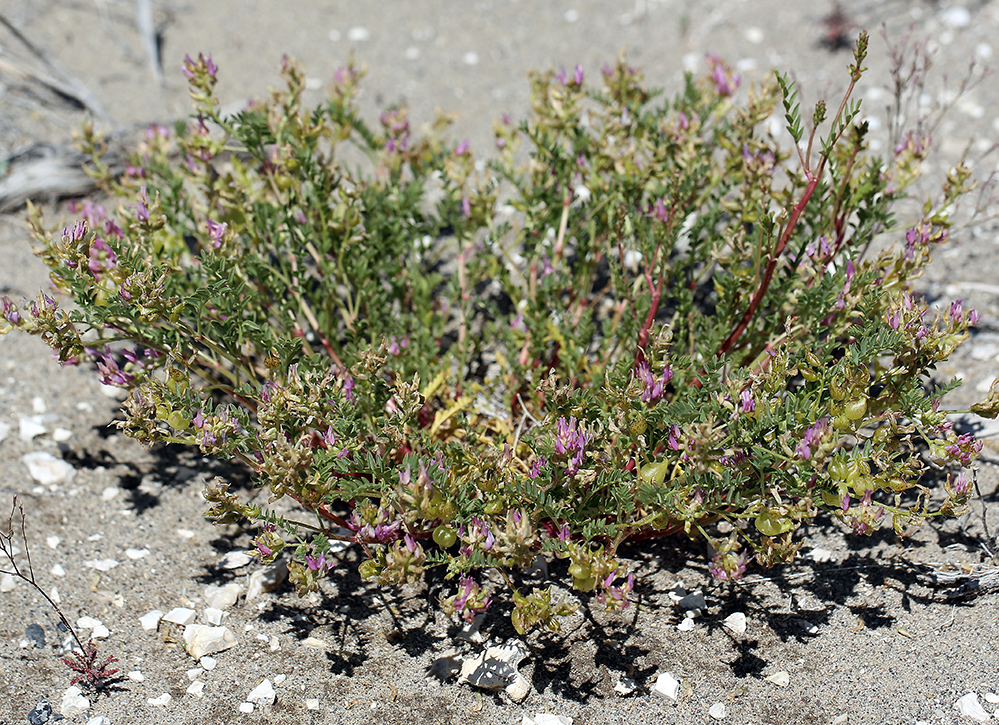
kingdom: Plantae
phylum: Tracheophyta
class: Magnoliopsida
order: Fabales
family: Fabaceae
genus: Astragalus
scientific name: Astragalus lentiginosus
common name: Freckled milkvetch
